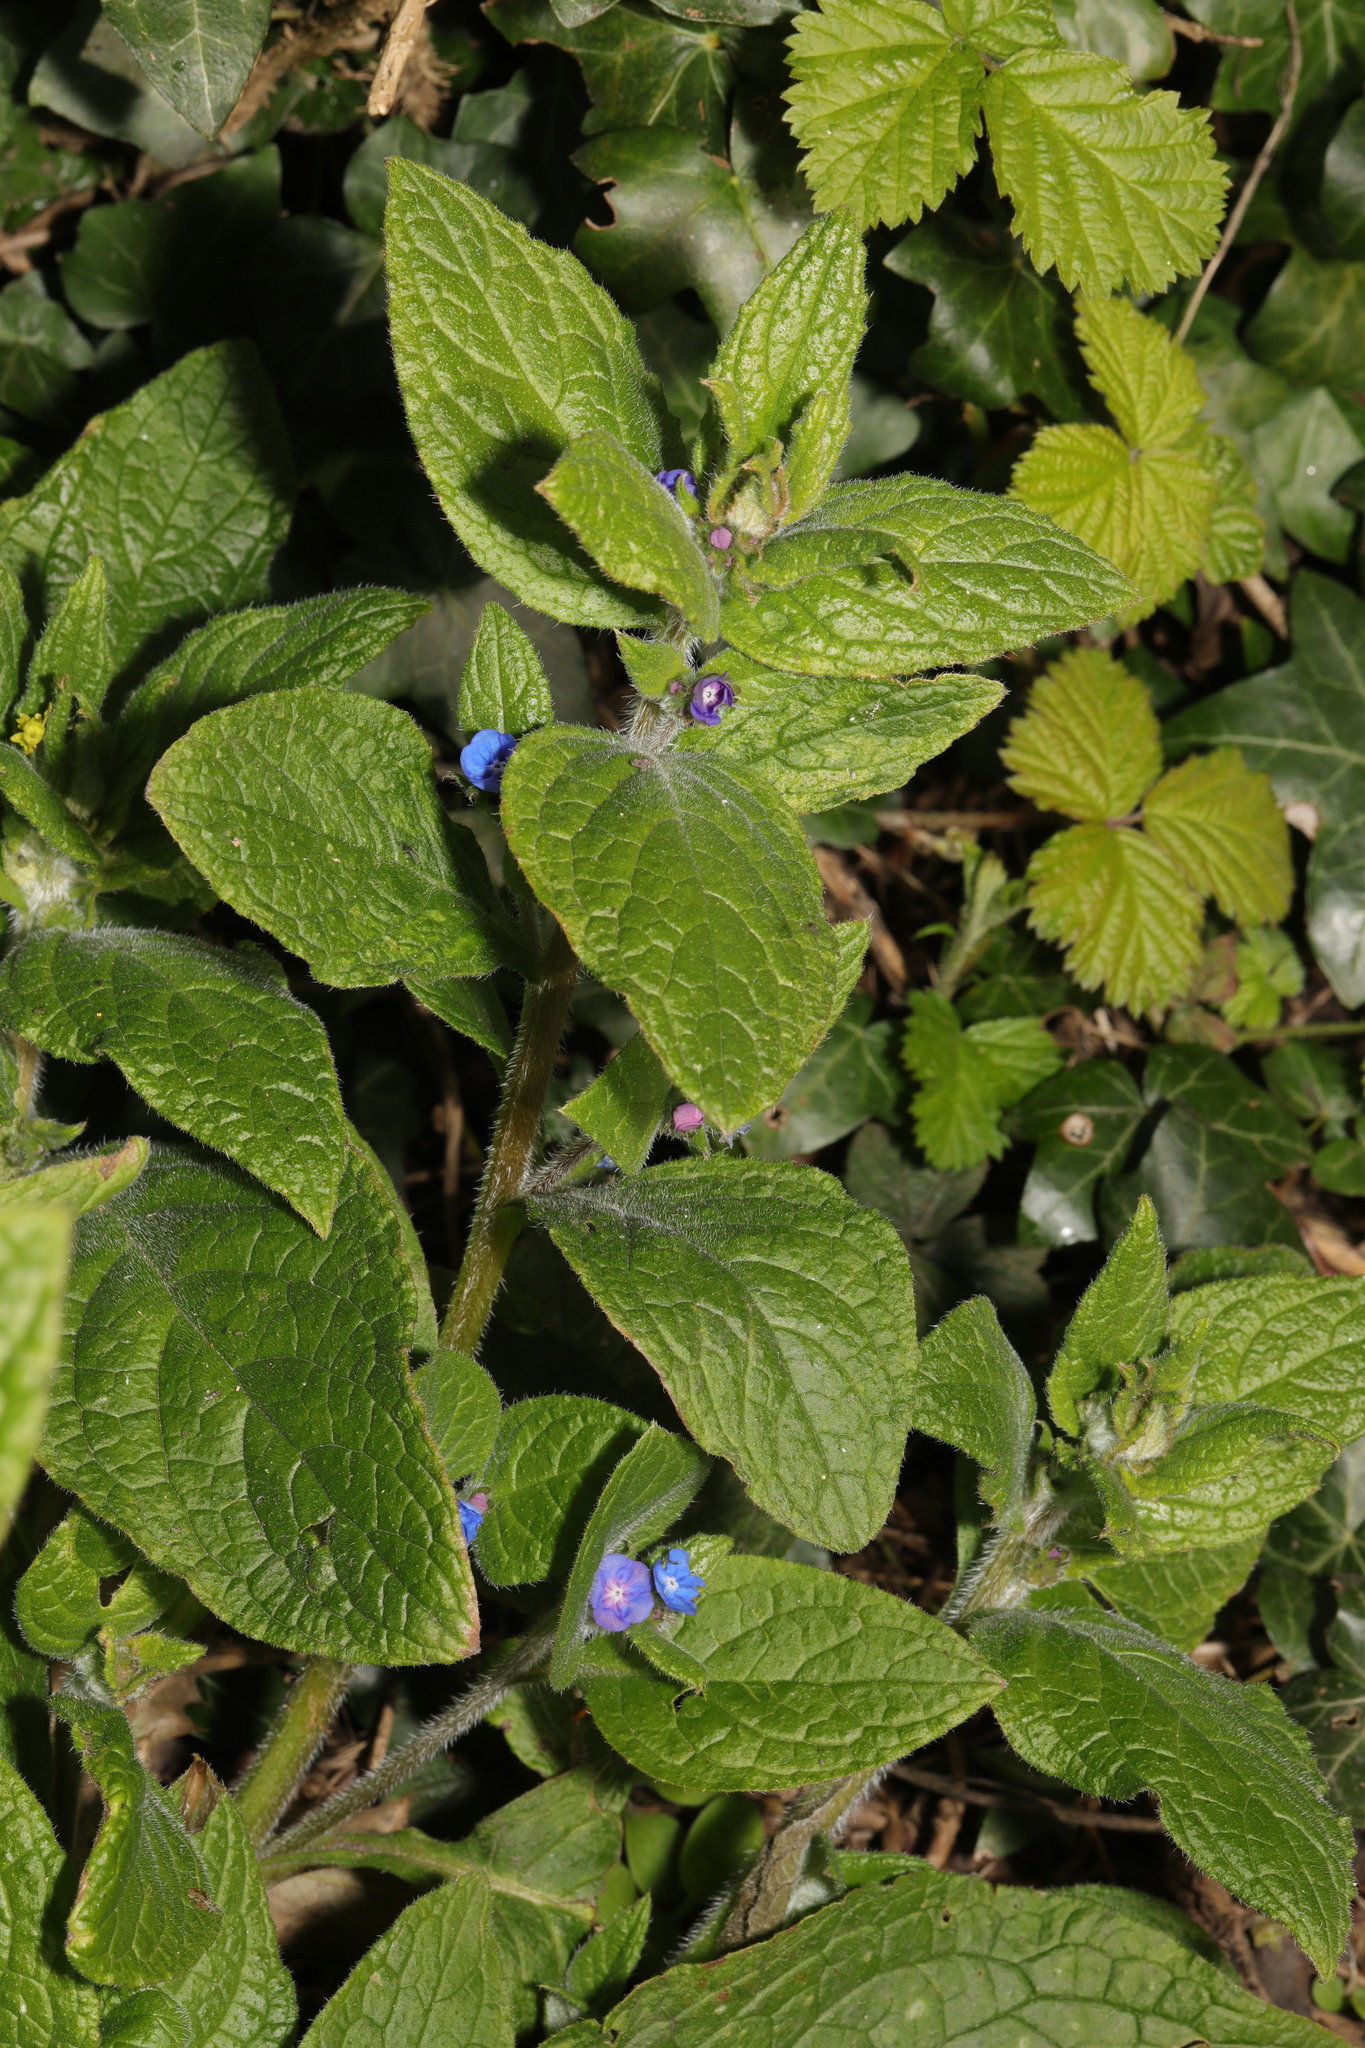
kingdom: Plantae
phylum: Tracheophyta
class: Magnoliopsida
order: Boraginales
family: Boraginaceae
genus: Pentaglottis
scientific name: Pentaglottis sempervirens
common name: Green alkanet
